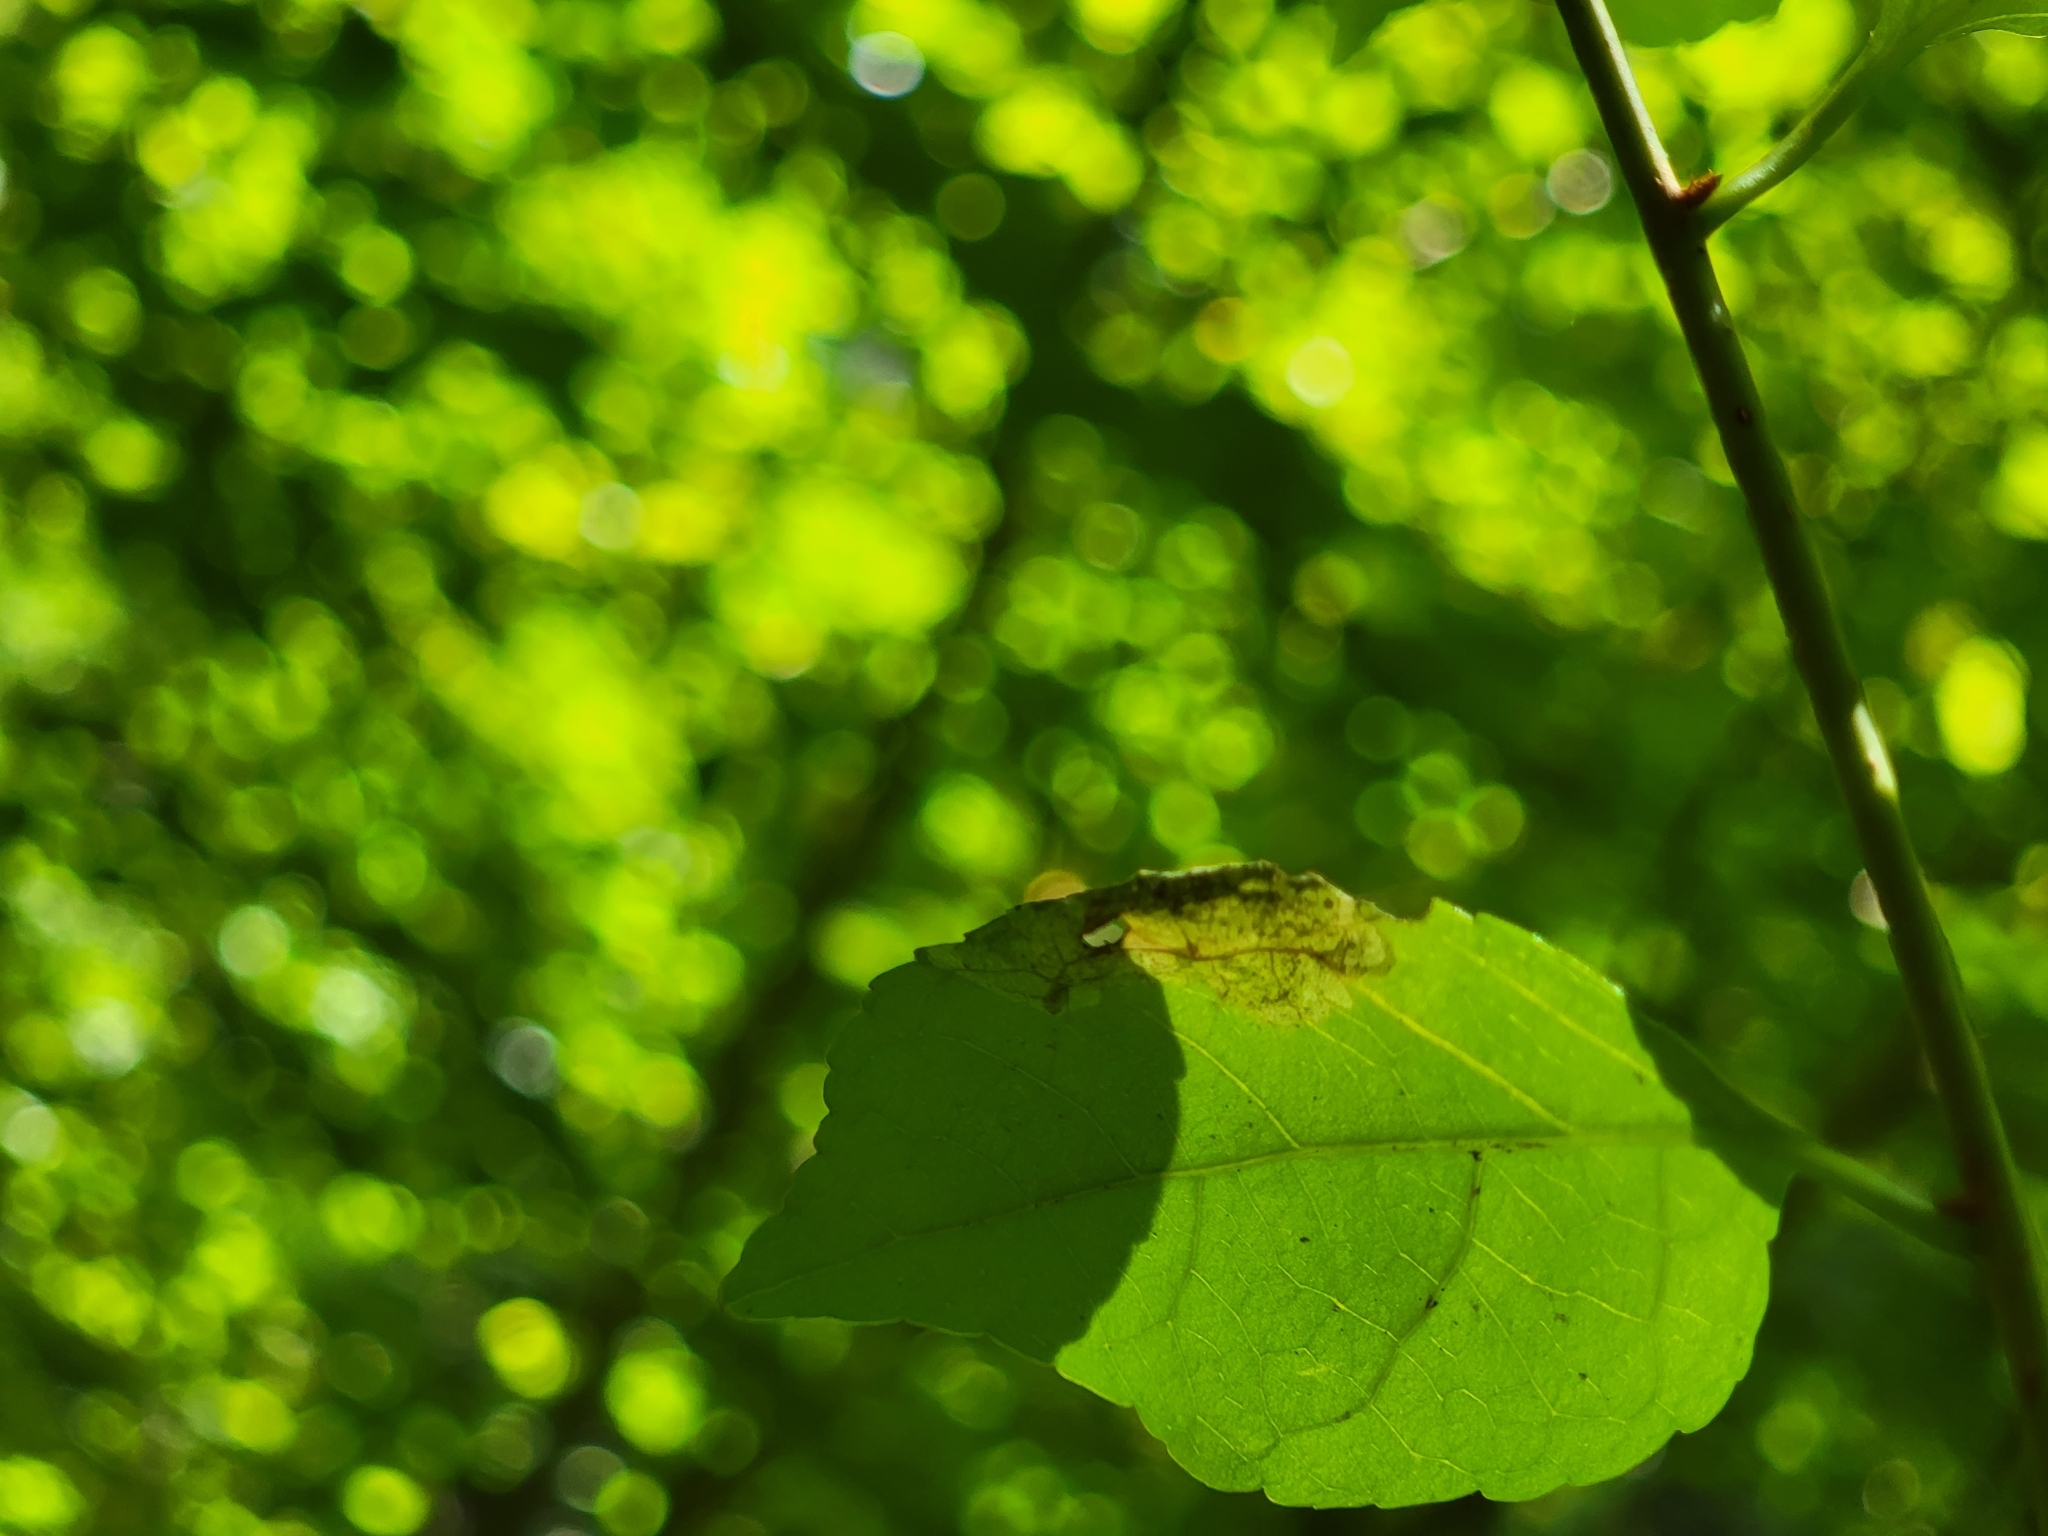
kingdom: Animalia
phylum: Arthropoda
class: Insecta
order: Coleoptera
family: Chrysomelidae
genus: Sumitrosis
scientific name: Sumitrosis rosea
